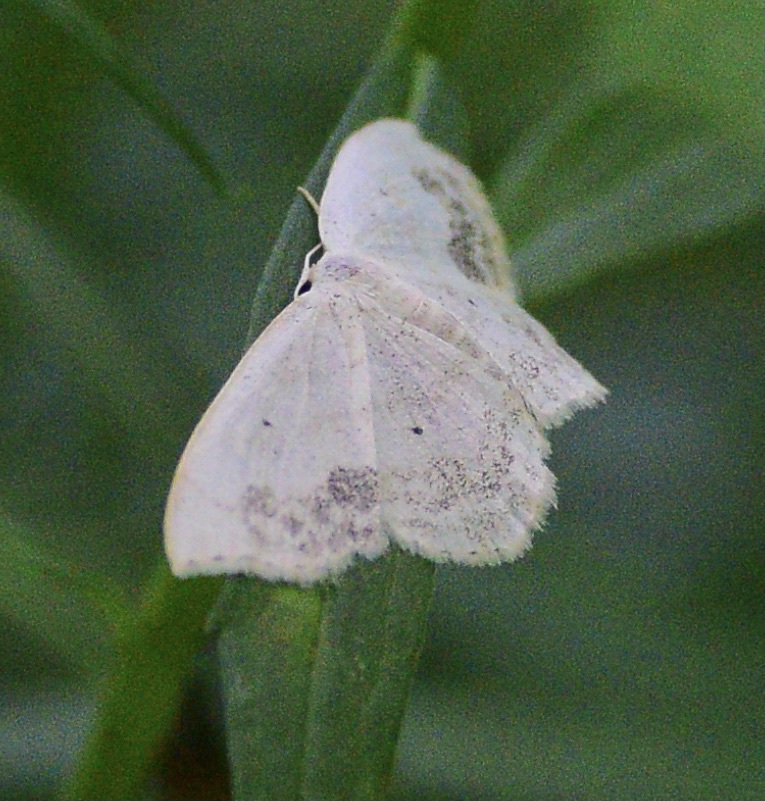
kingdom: Animalia
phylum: Arthropoda
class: Insecta
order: Lepidoptera
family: Geometridae
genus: Scopula
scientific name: Scopula limboundata
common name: Large lace border
